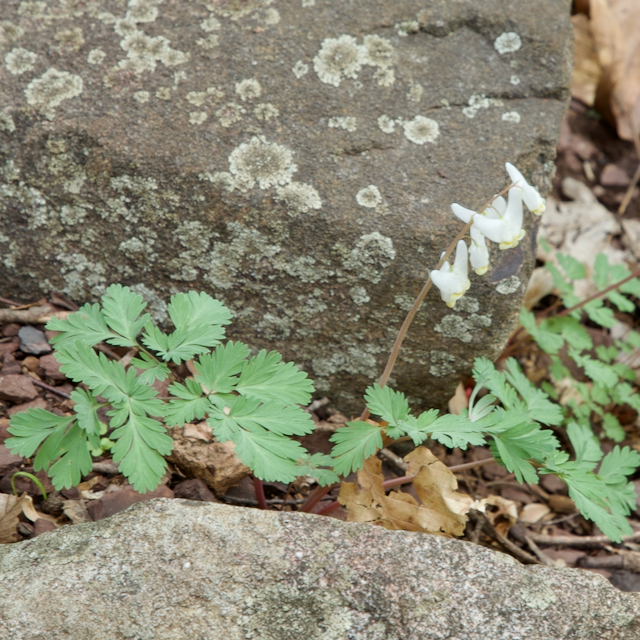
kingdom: Plantae
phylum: Tracheophyta
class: Magnoliopsida
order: Ranunculales
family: Papaveraceae
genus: Dicentra
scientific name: Dicentra cucullaria
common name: Dutchman's breeches
